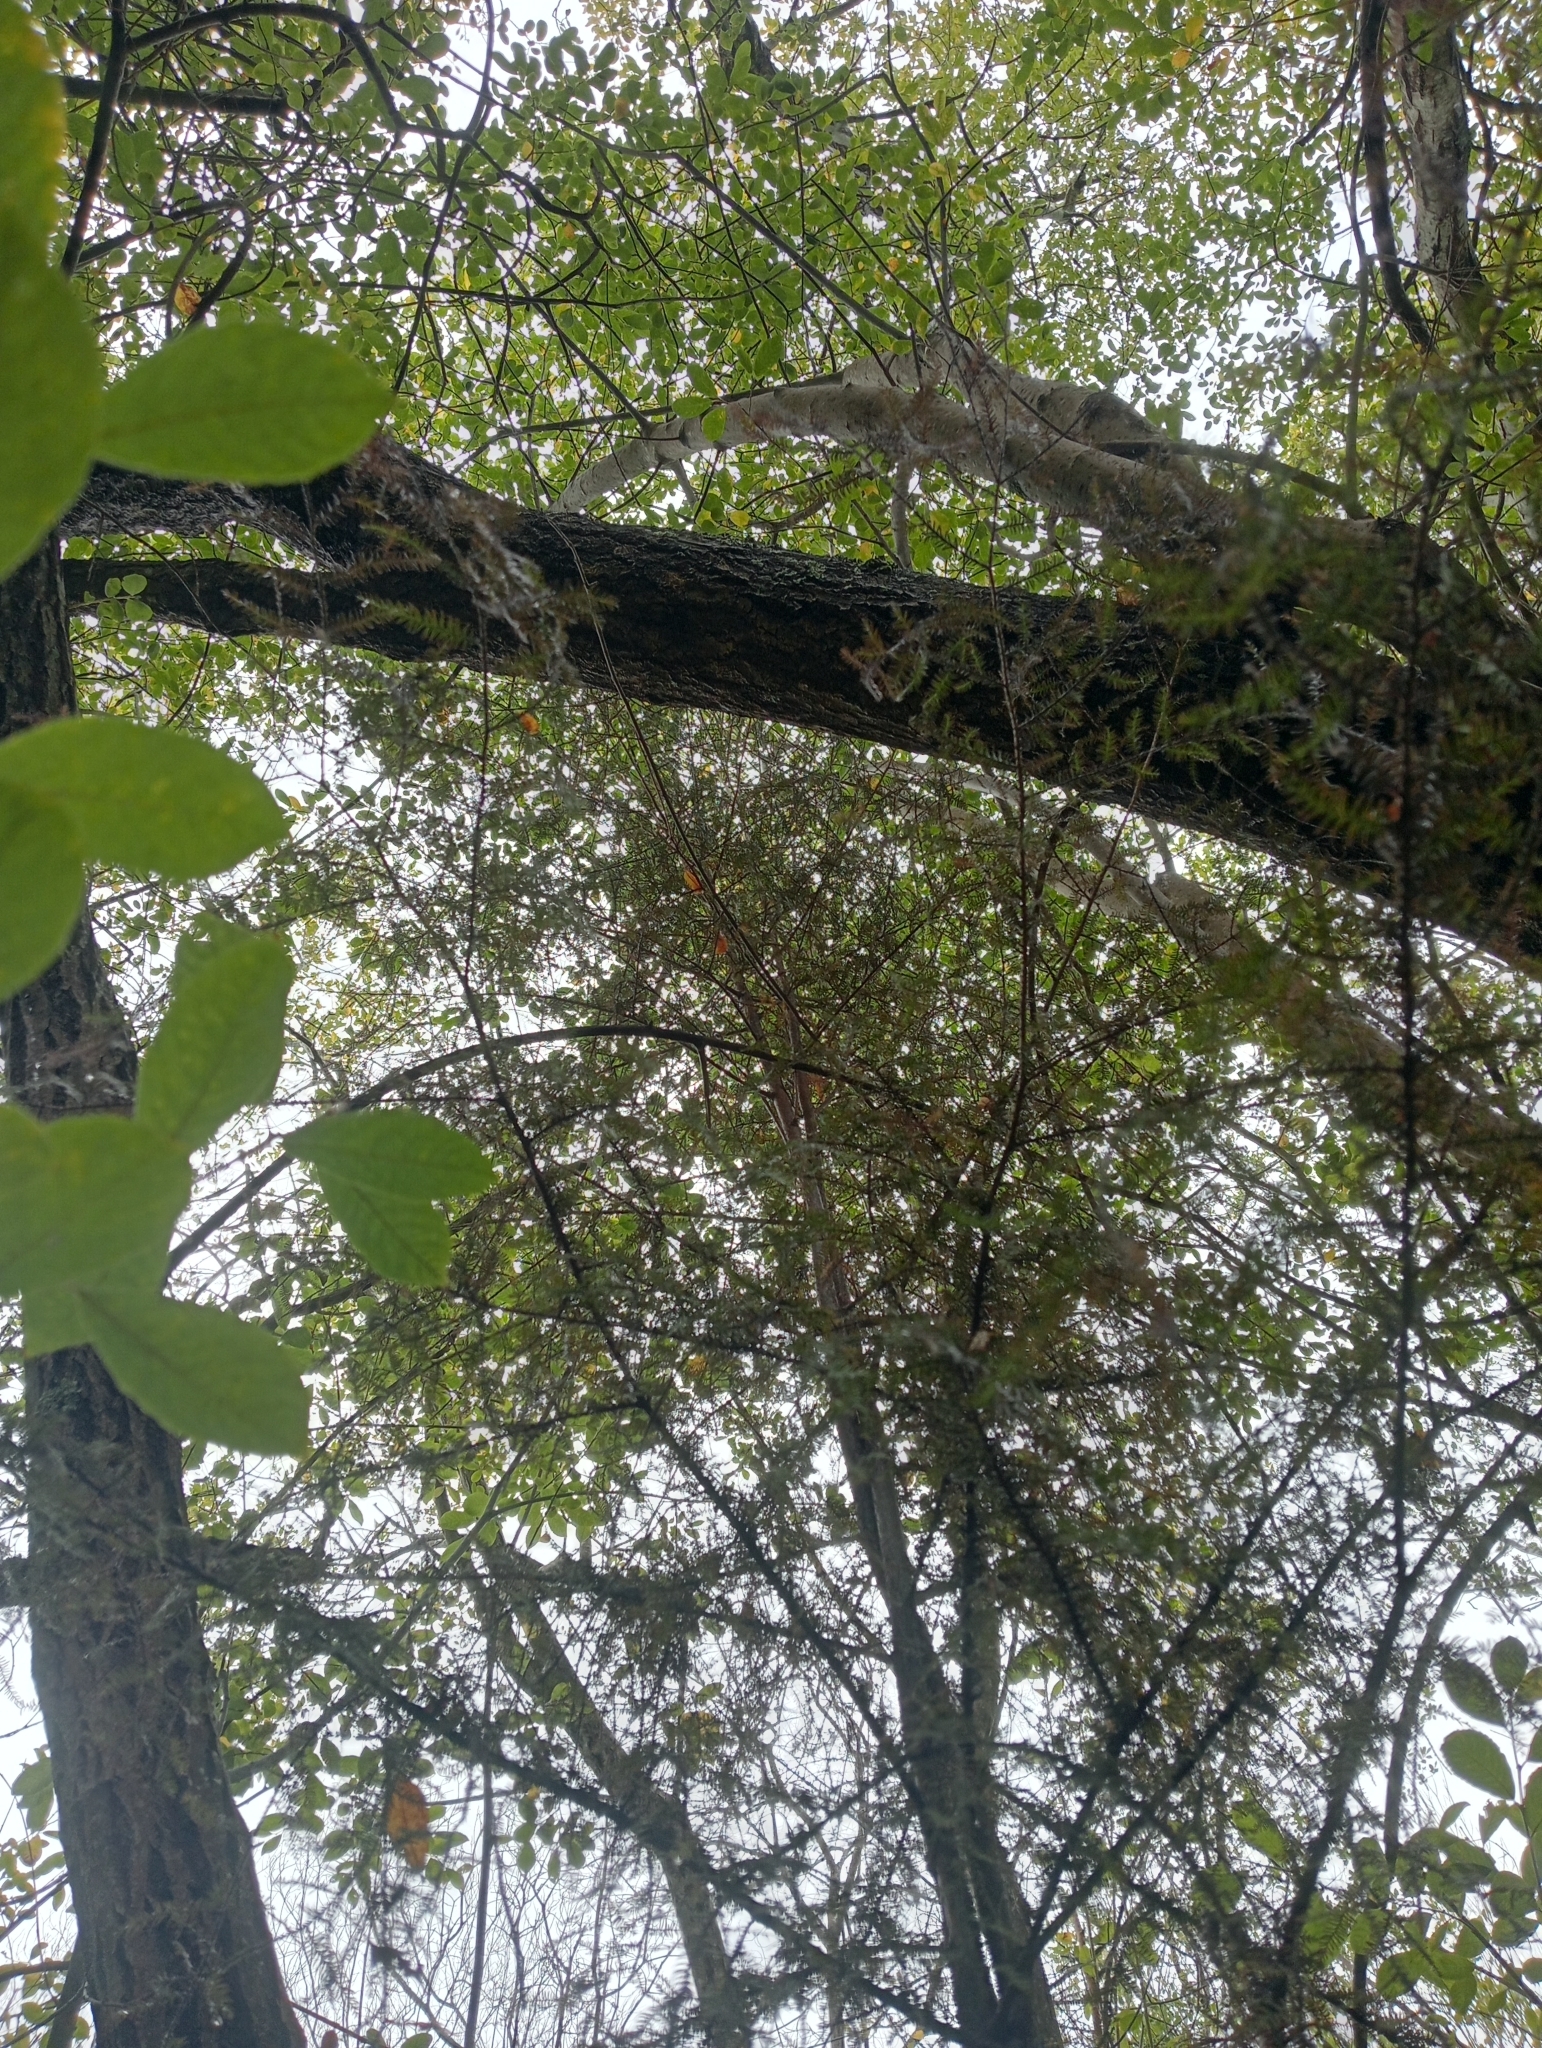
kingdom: Plantae
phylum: Tracheophyta
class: Pinopsida
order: Pinales
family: Podocarpaceae
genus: Dacrycarpus
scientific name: Dacrycarpus dacrydioides
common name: White pine
